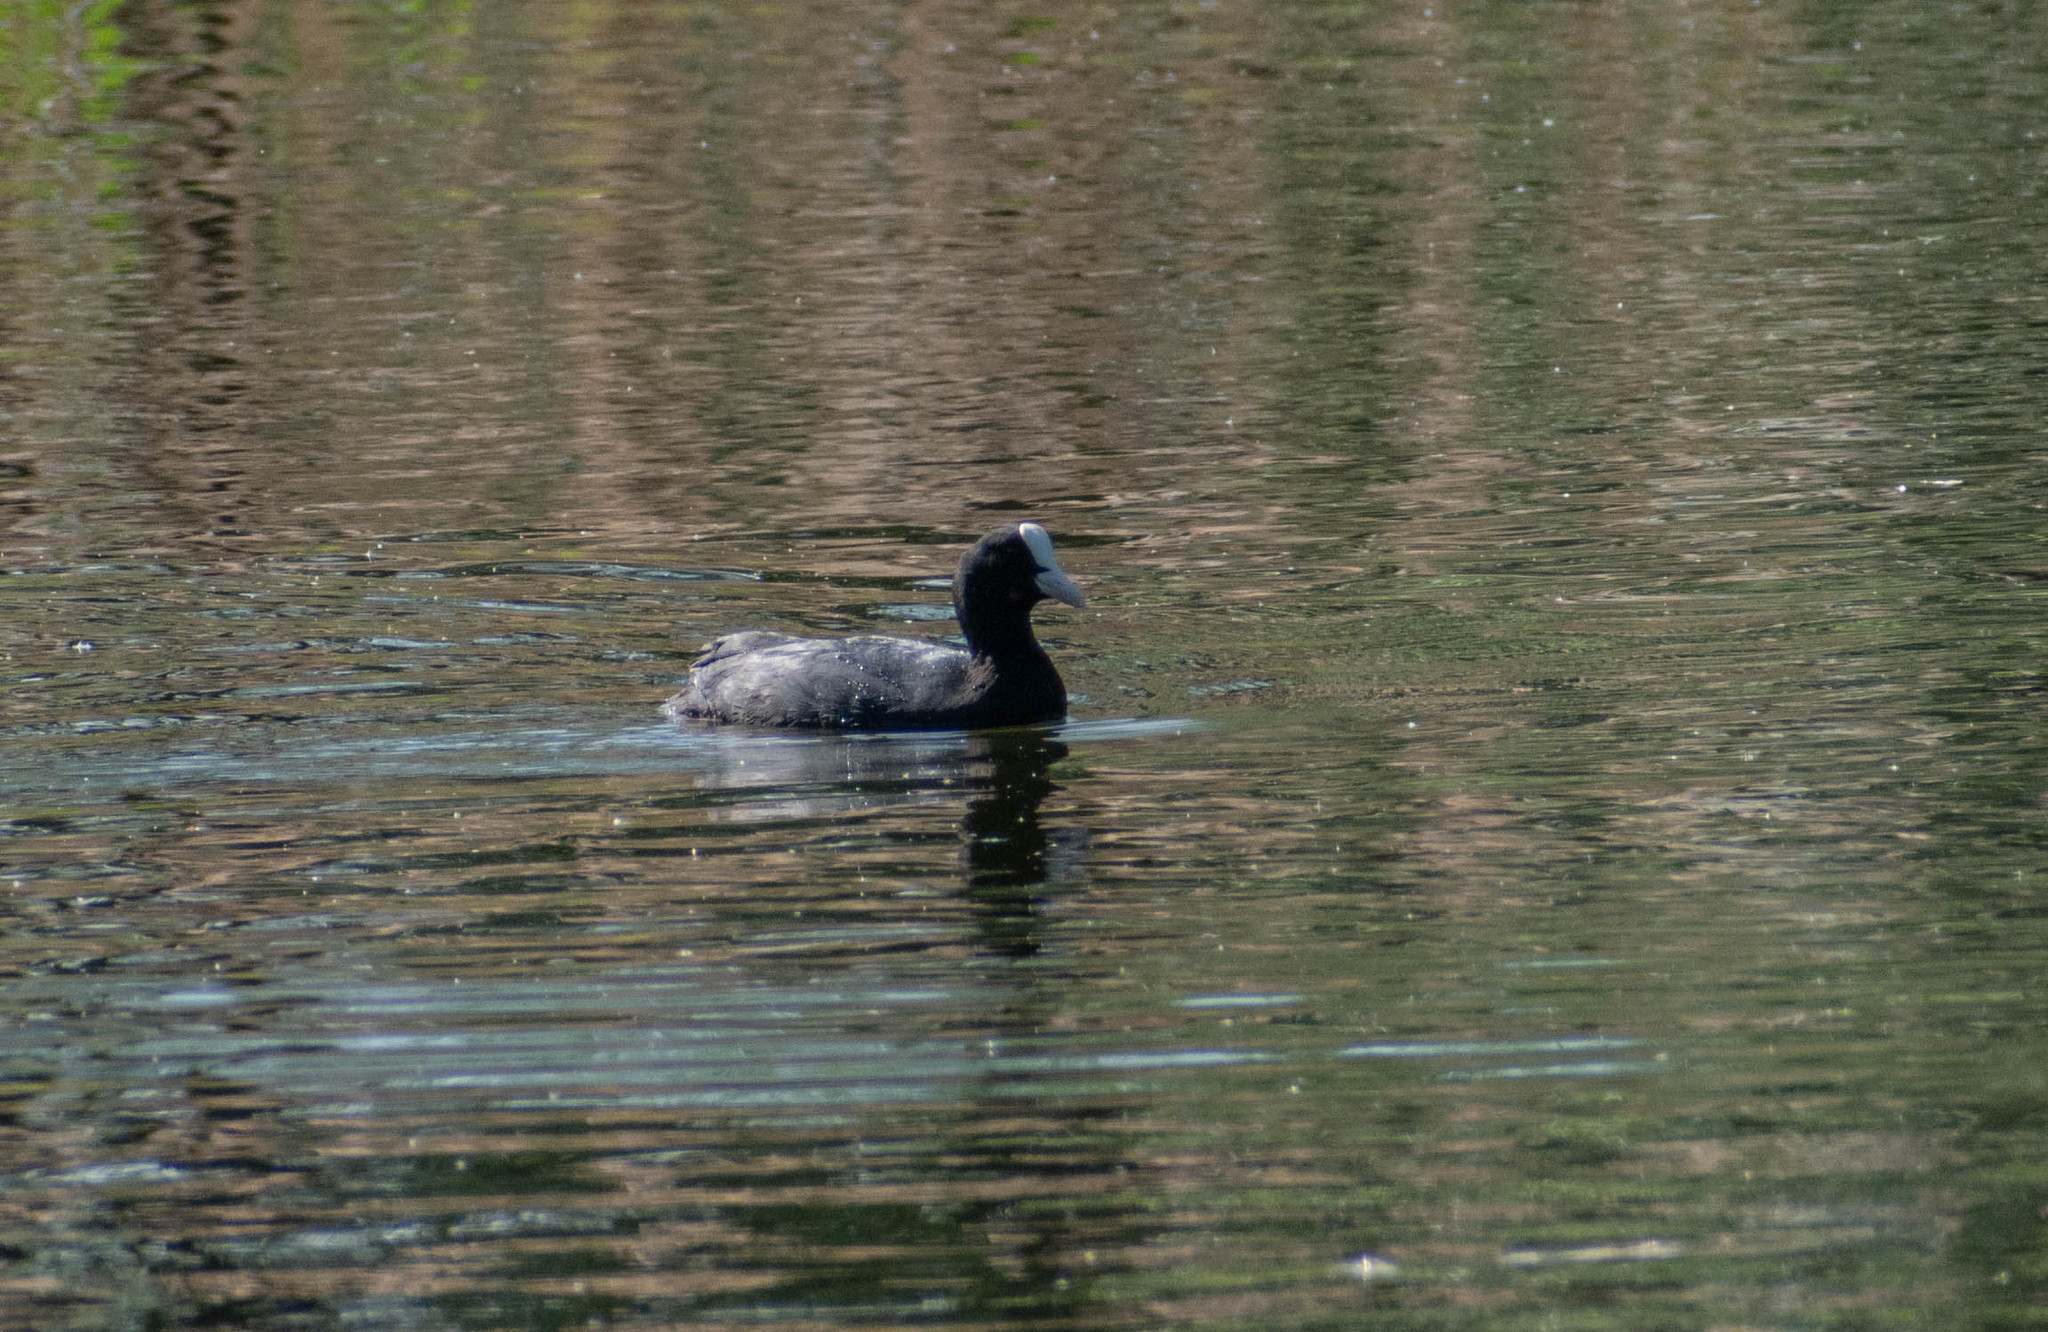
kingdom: Animalia
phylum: Chordata
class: Aves
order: Gruiformes
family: Rallidae
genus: Fulica
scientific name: Fulica atra
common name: Eurasian coot
